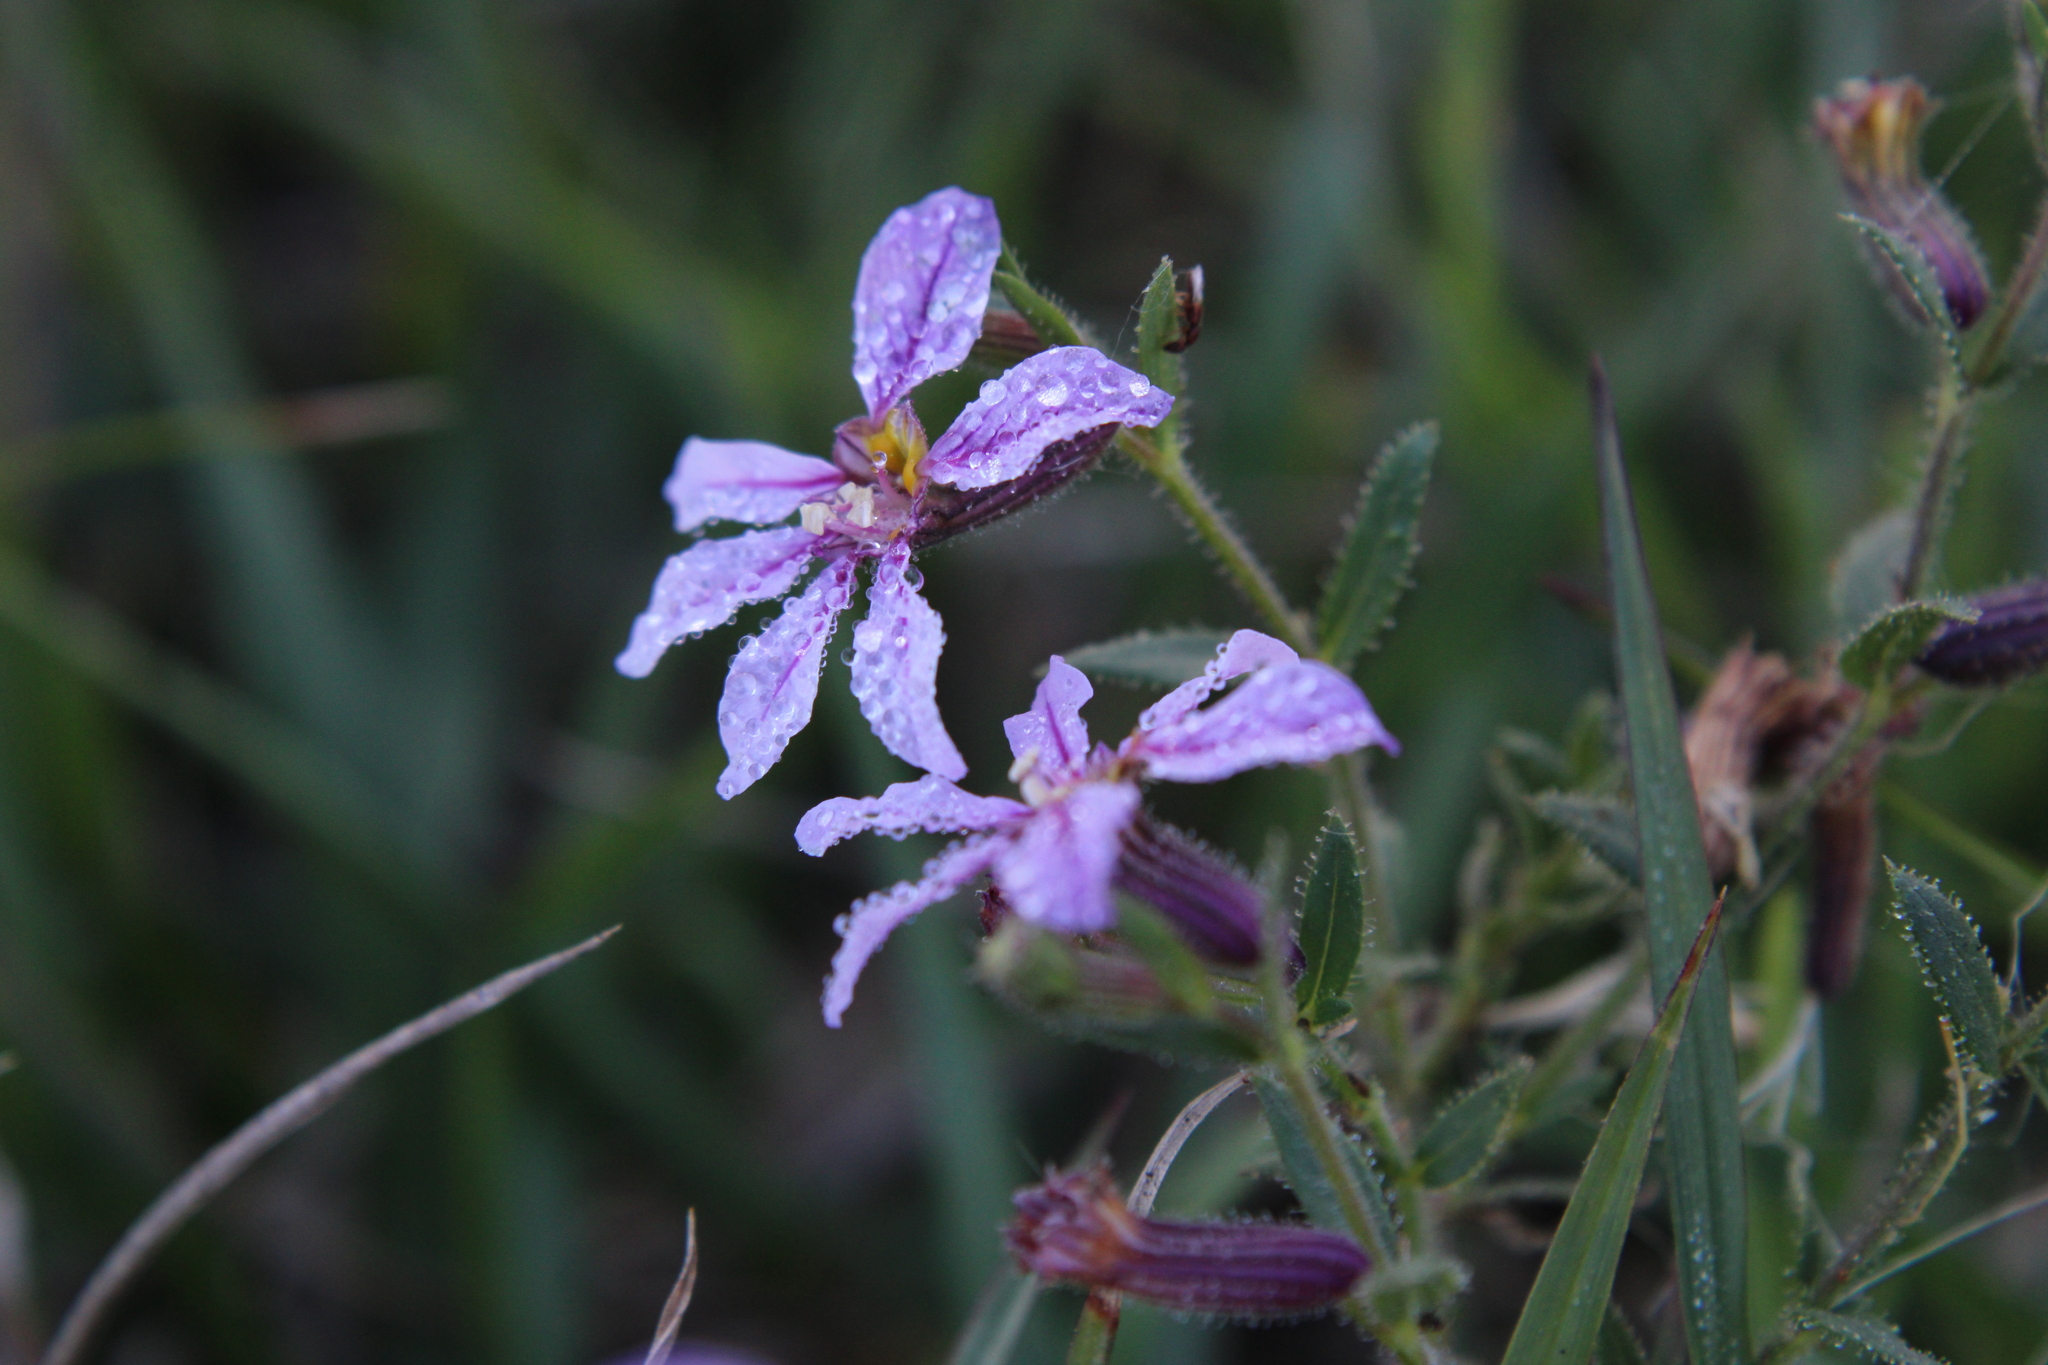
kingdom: Plantae
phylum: Tracheophyta
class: Magnoliopsida
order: Myrtales
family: Lythraceae
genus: Cuphea
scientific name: Cuphea glutinosa
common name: Sticky waxweed
